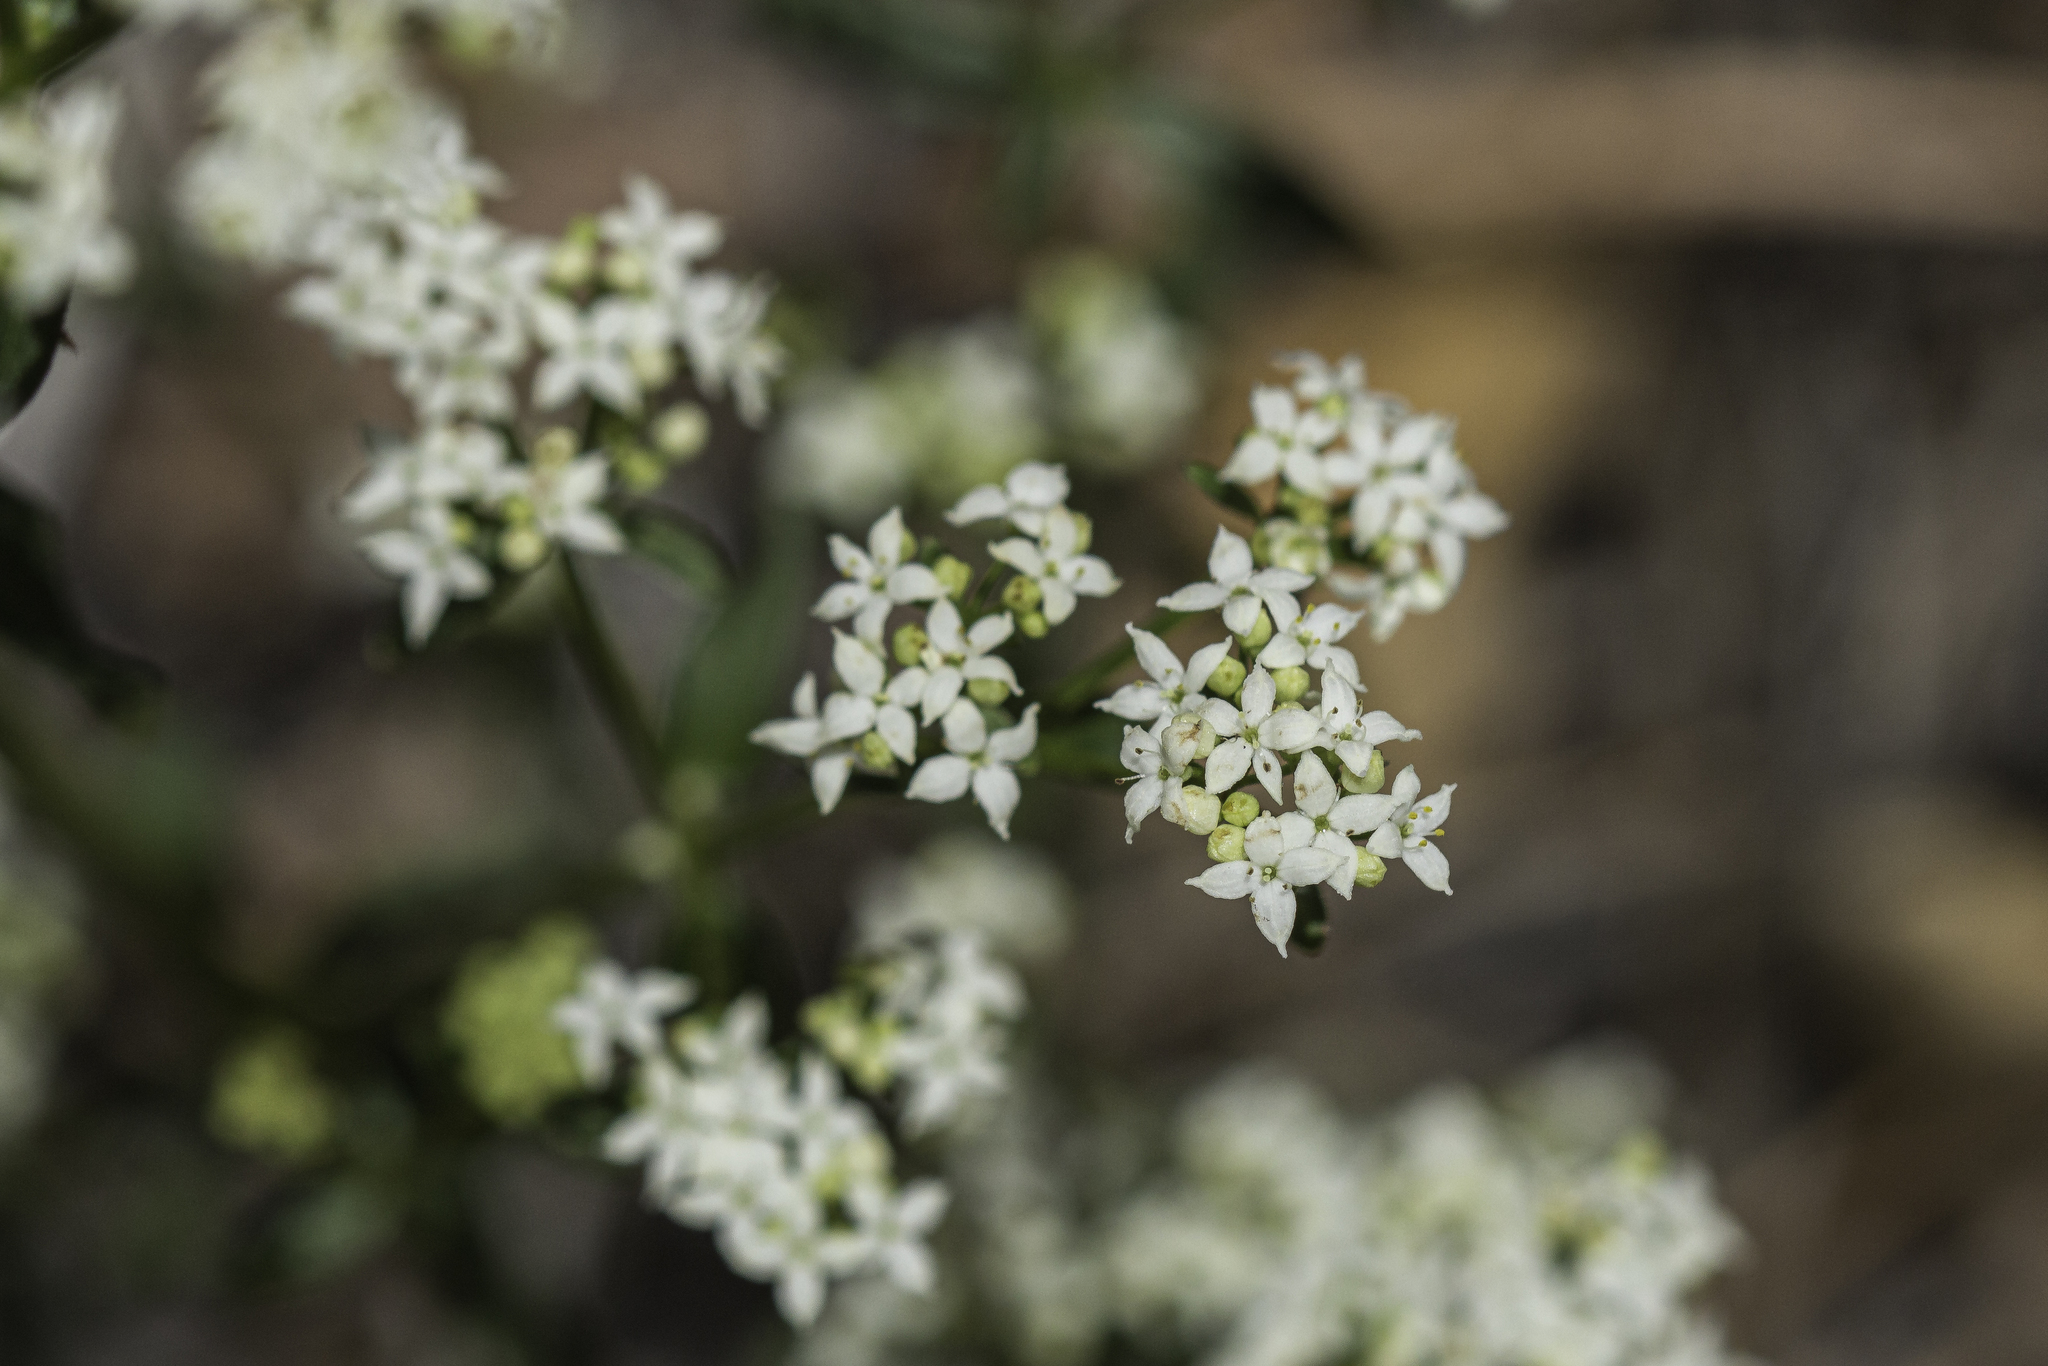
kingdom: Plantae
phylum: Tracheophyta
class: Magnoliopsida
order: Gentianales
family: Rubiaceae
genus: Galium
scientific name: Galium boreale
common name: Northern bedstraw
